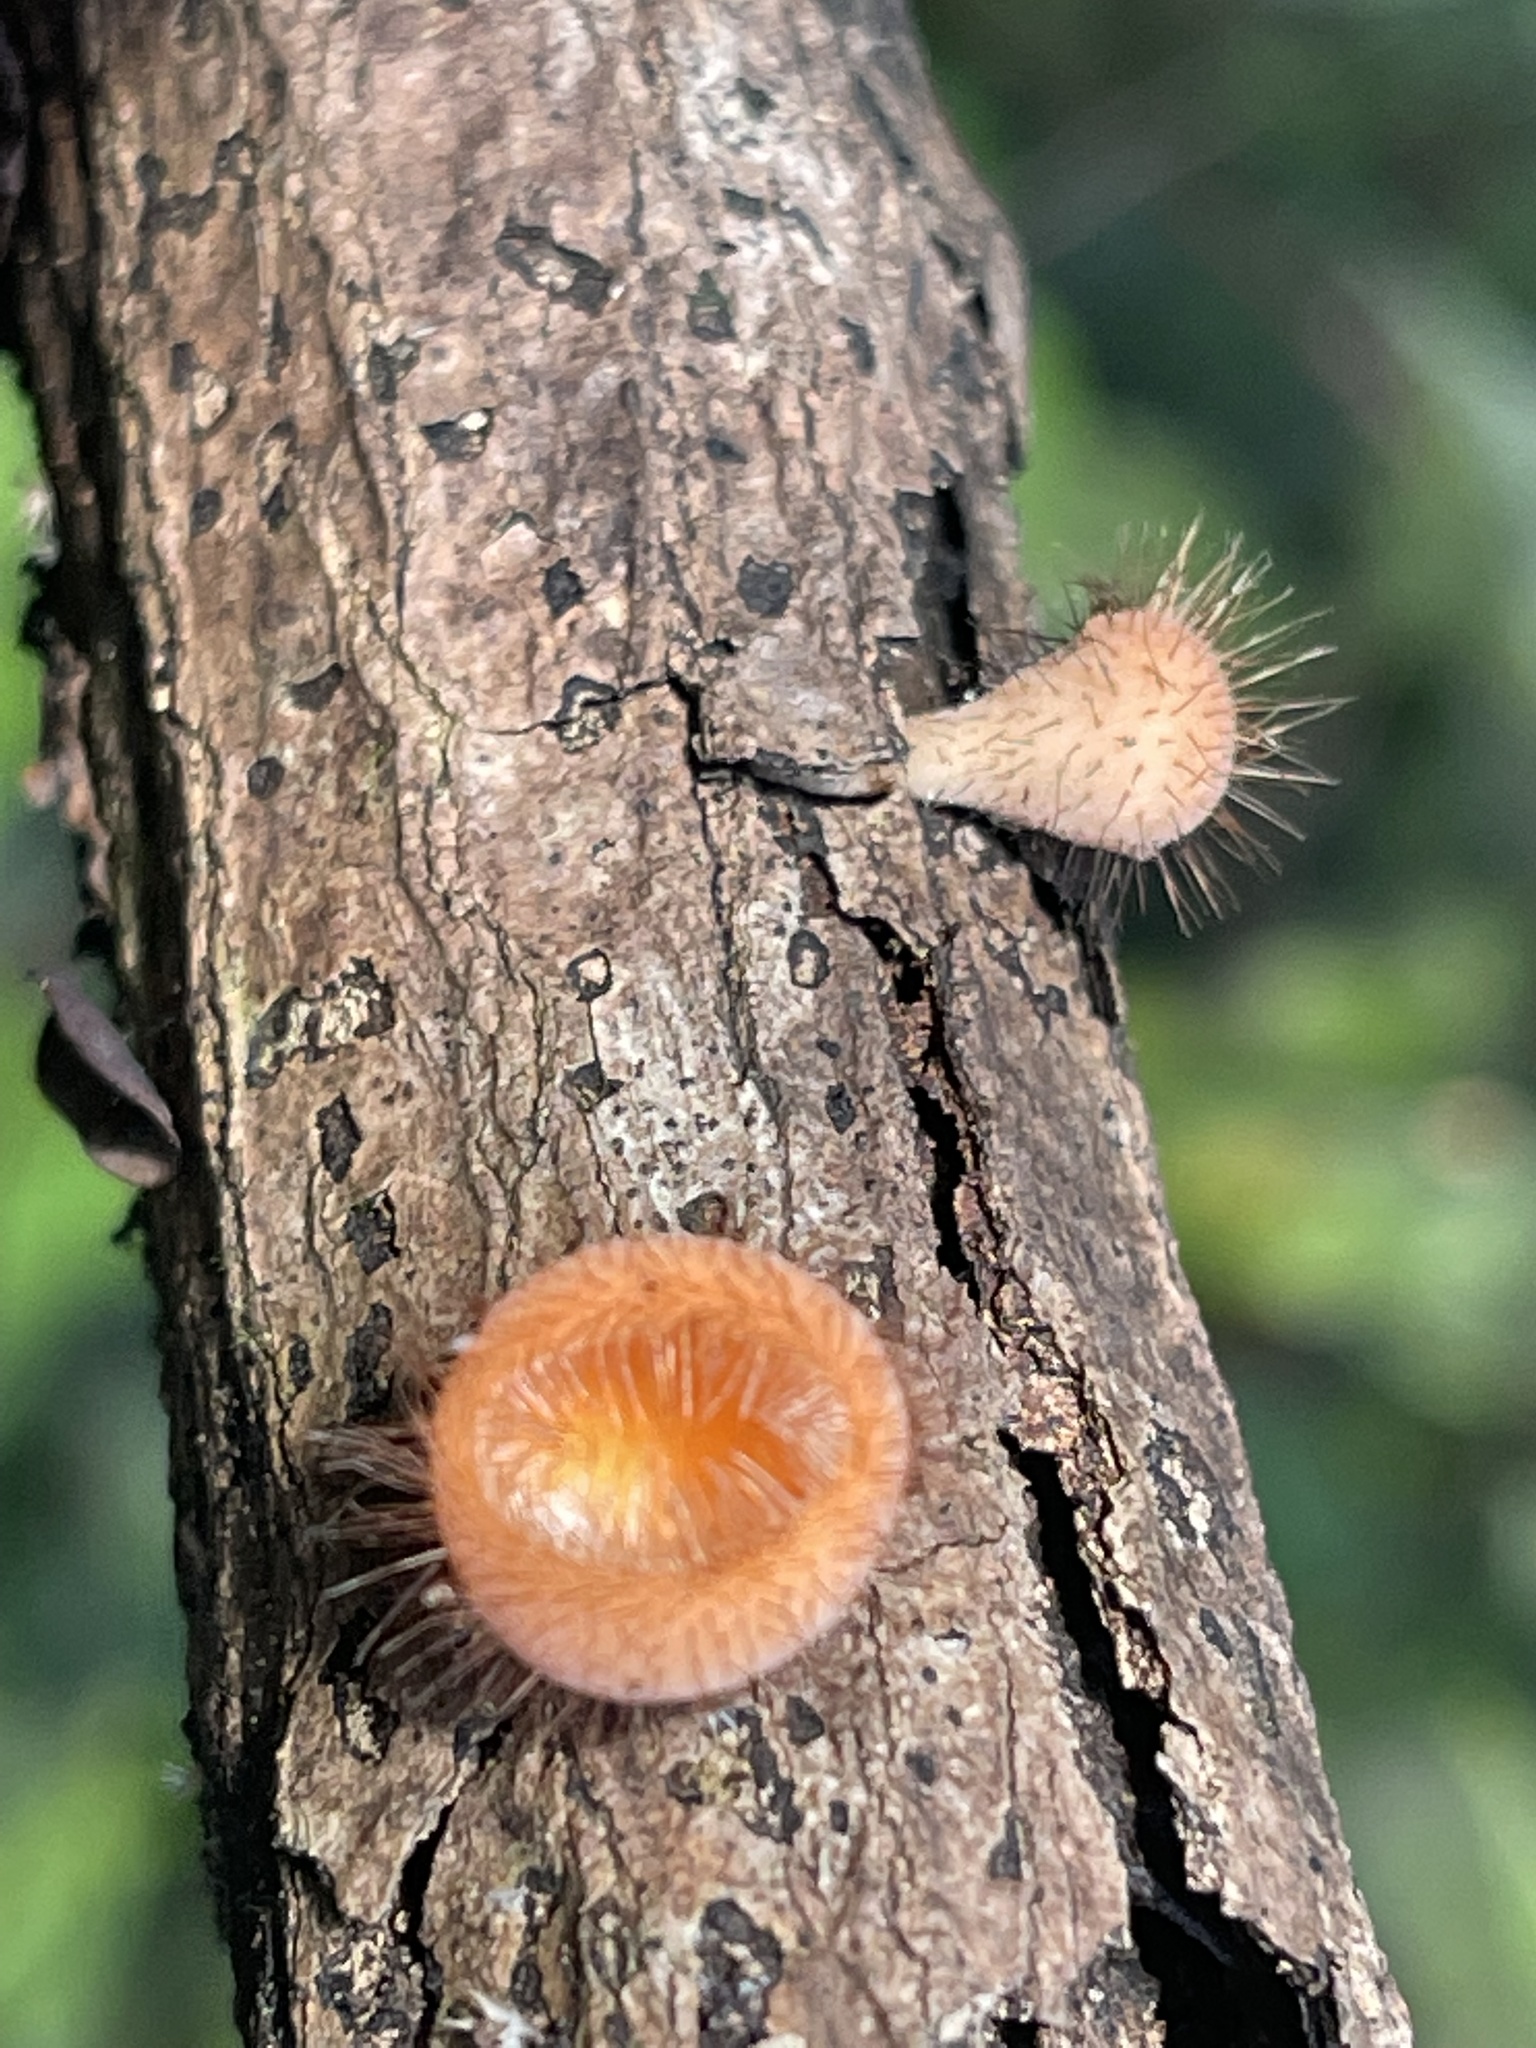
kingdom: Fungi
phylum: Ascomycota
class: Pezizomycetes
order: Pezizales
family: Sarcoscyphaceae
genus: Cookeina
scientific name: Cookeina tricholoma
